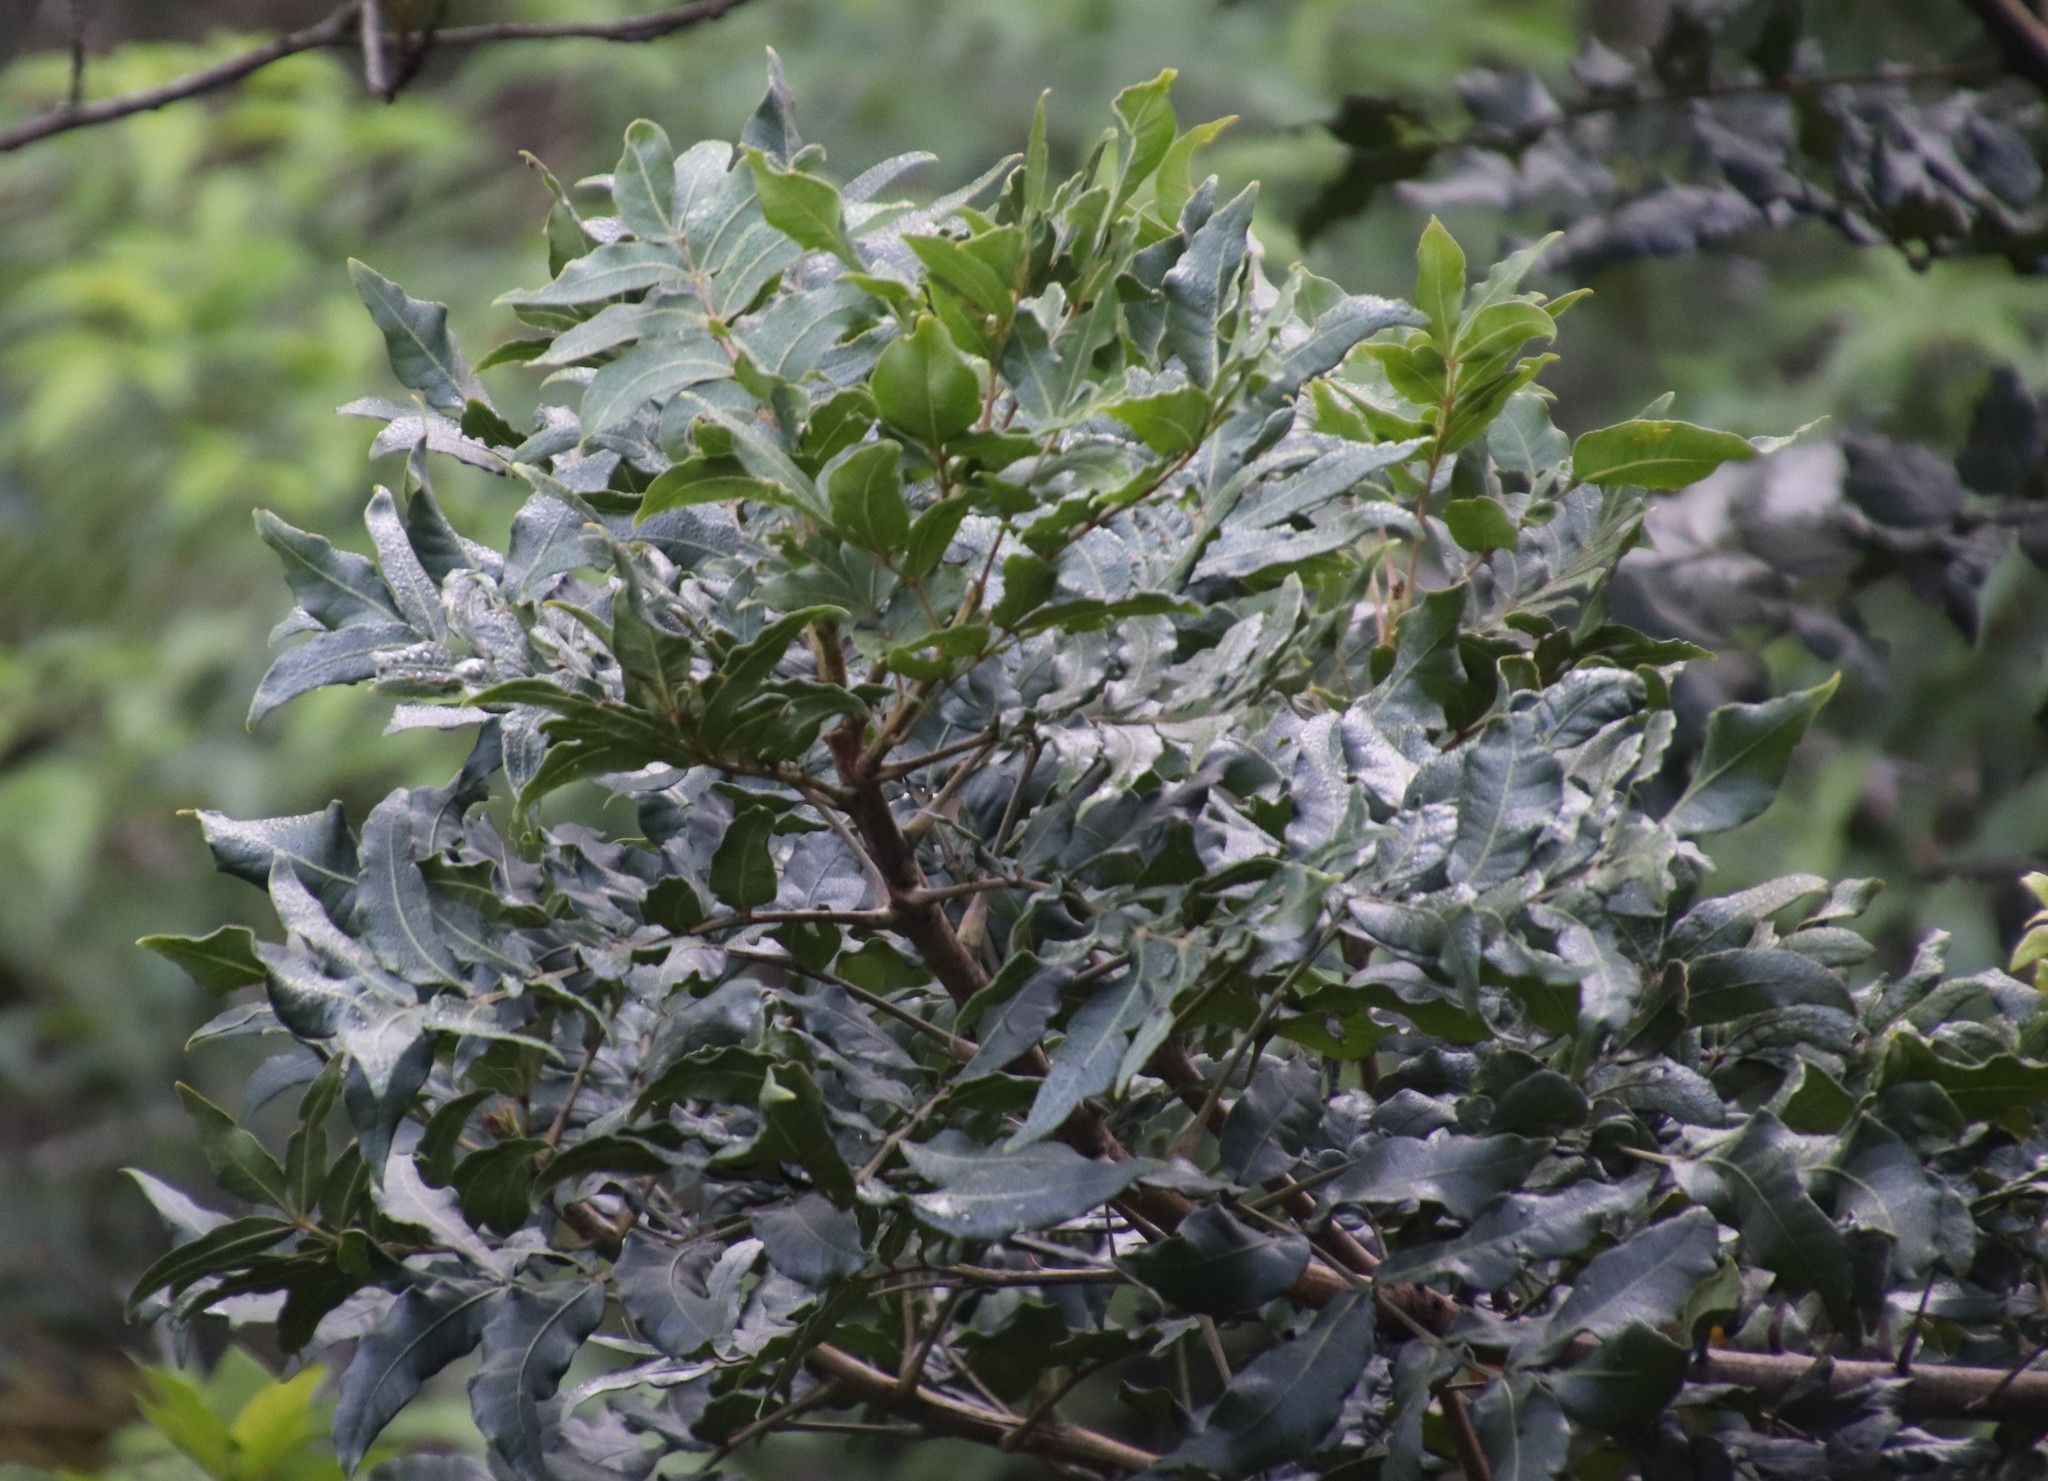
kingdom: Plantae
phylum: Tracheophyta
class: Magnoliopsida
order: Sapindales
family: Anacardiaceae
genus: Harpephyllum
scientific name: Harpephyllum caffrum
